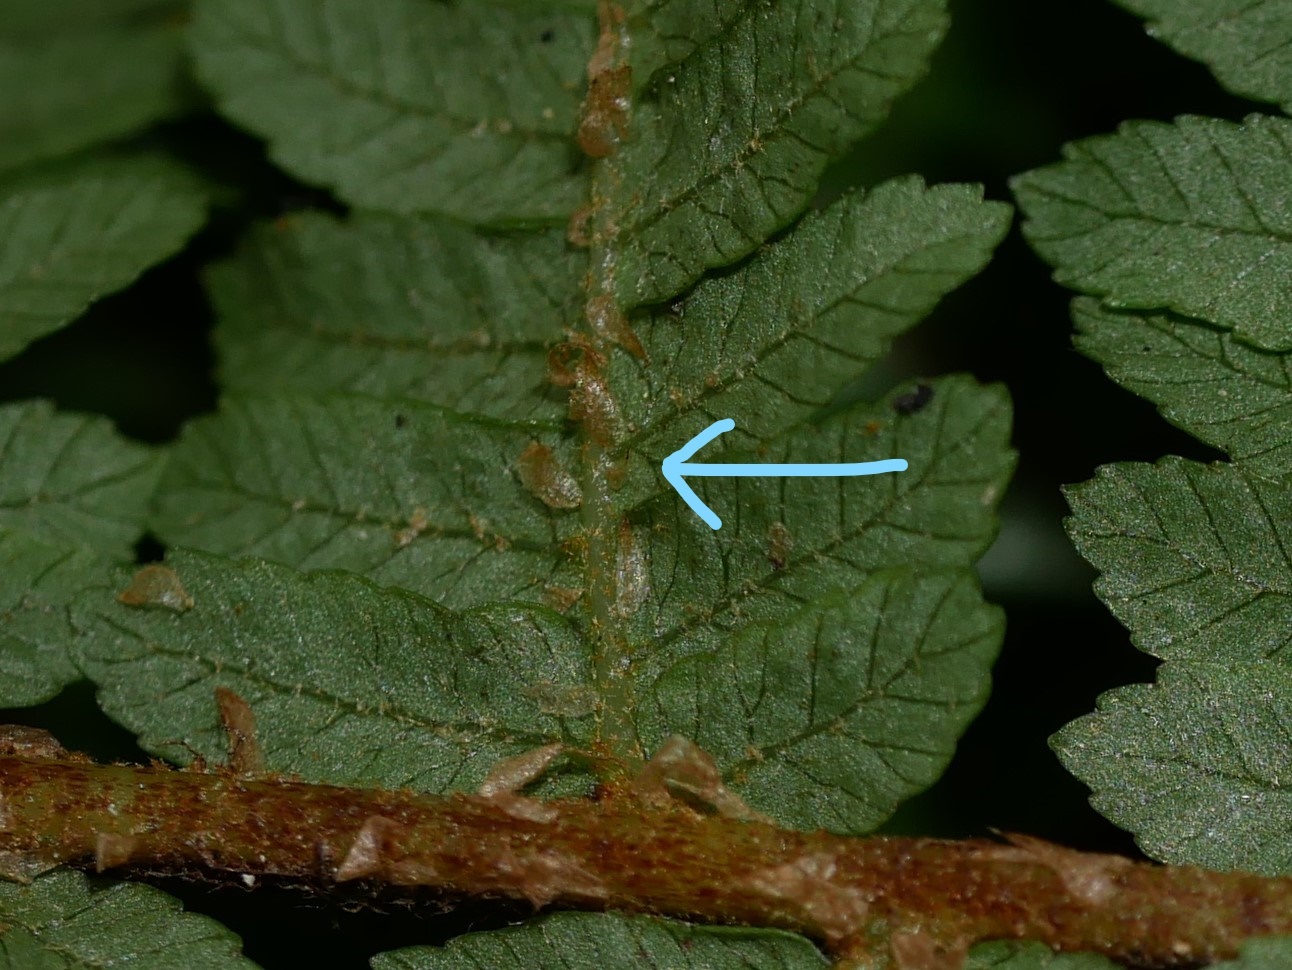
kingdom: Plantae
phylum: Tracheophyta
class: Polypodiopsida
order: Cyatheales
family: Cyatheaceae
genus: Cyathea
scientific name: Cyathea cunninghamii
